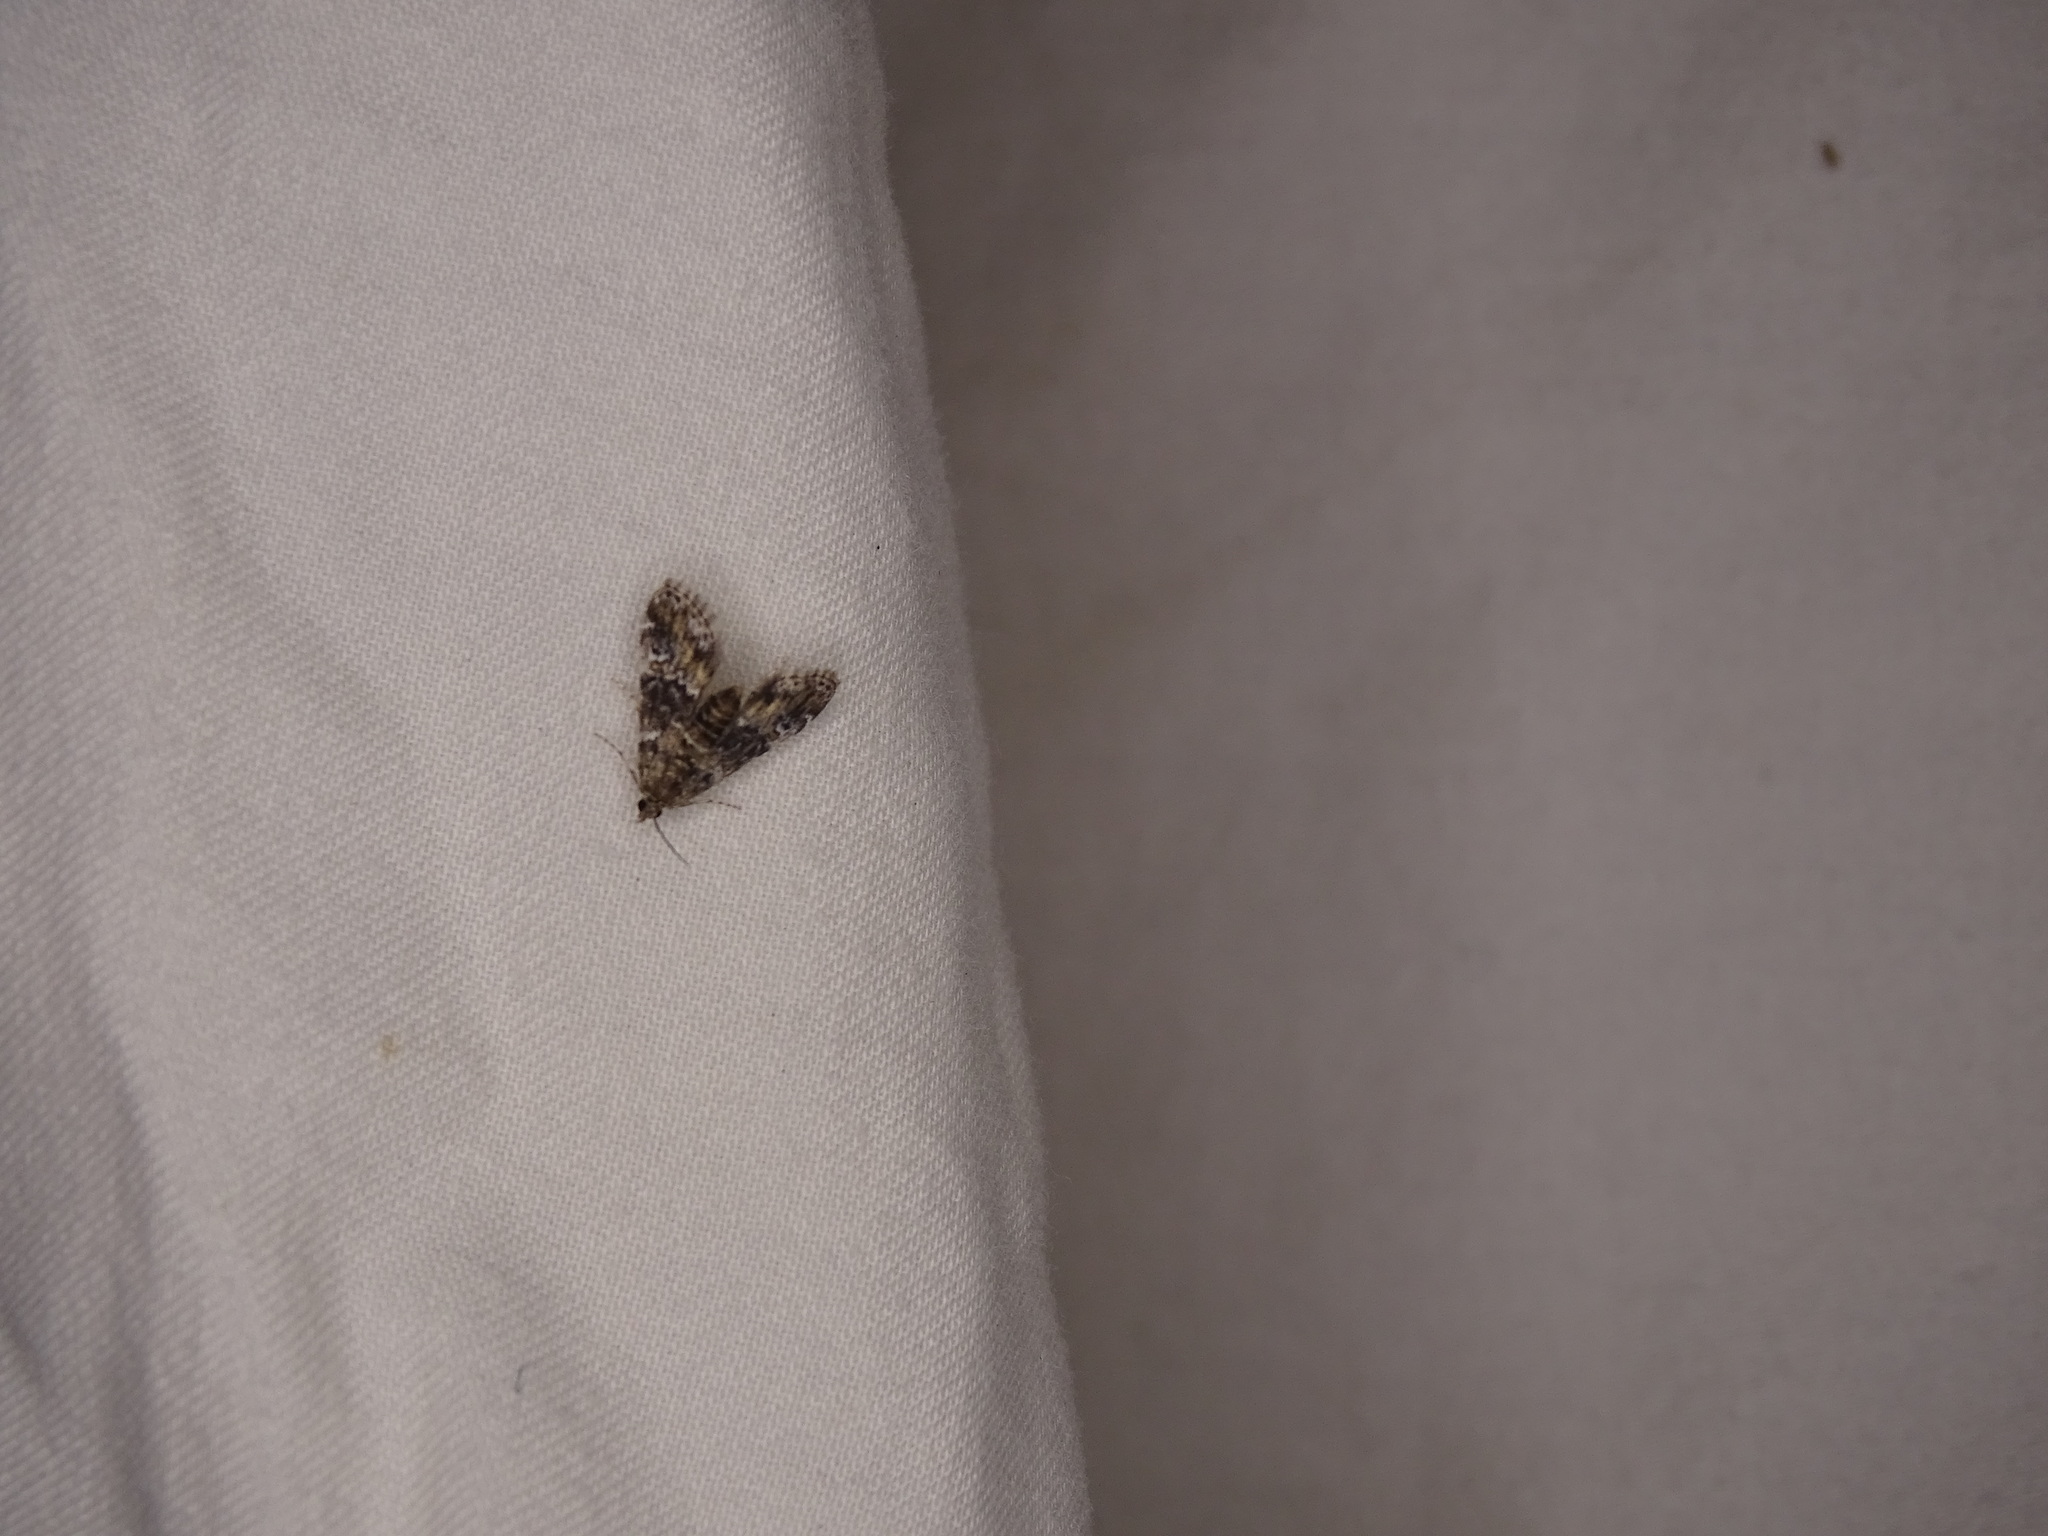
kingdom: Animalia
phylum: Arthropoda
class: Insecta
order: Lepidoptera
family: Crambidae
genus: Elophila
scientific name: Elophila obliteralis
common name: Waterlily leafcutter moth
